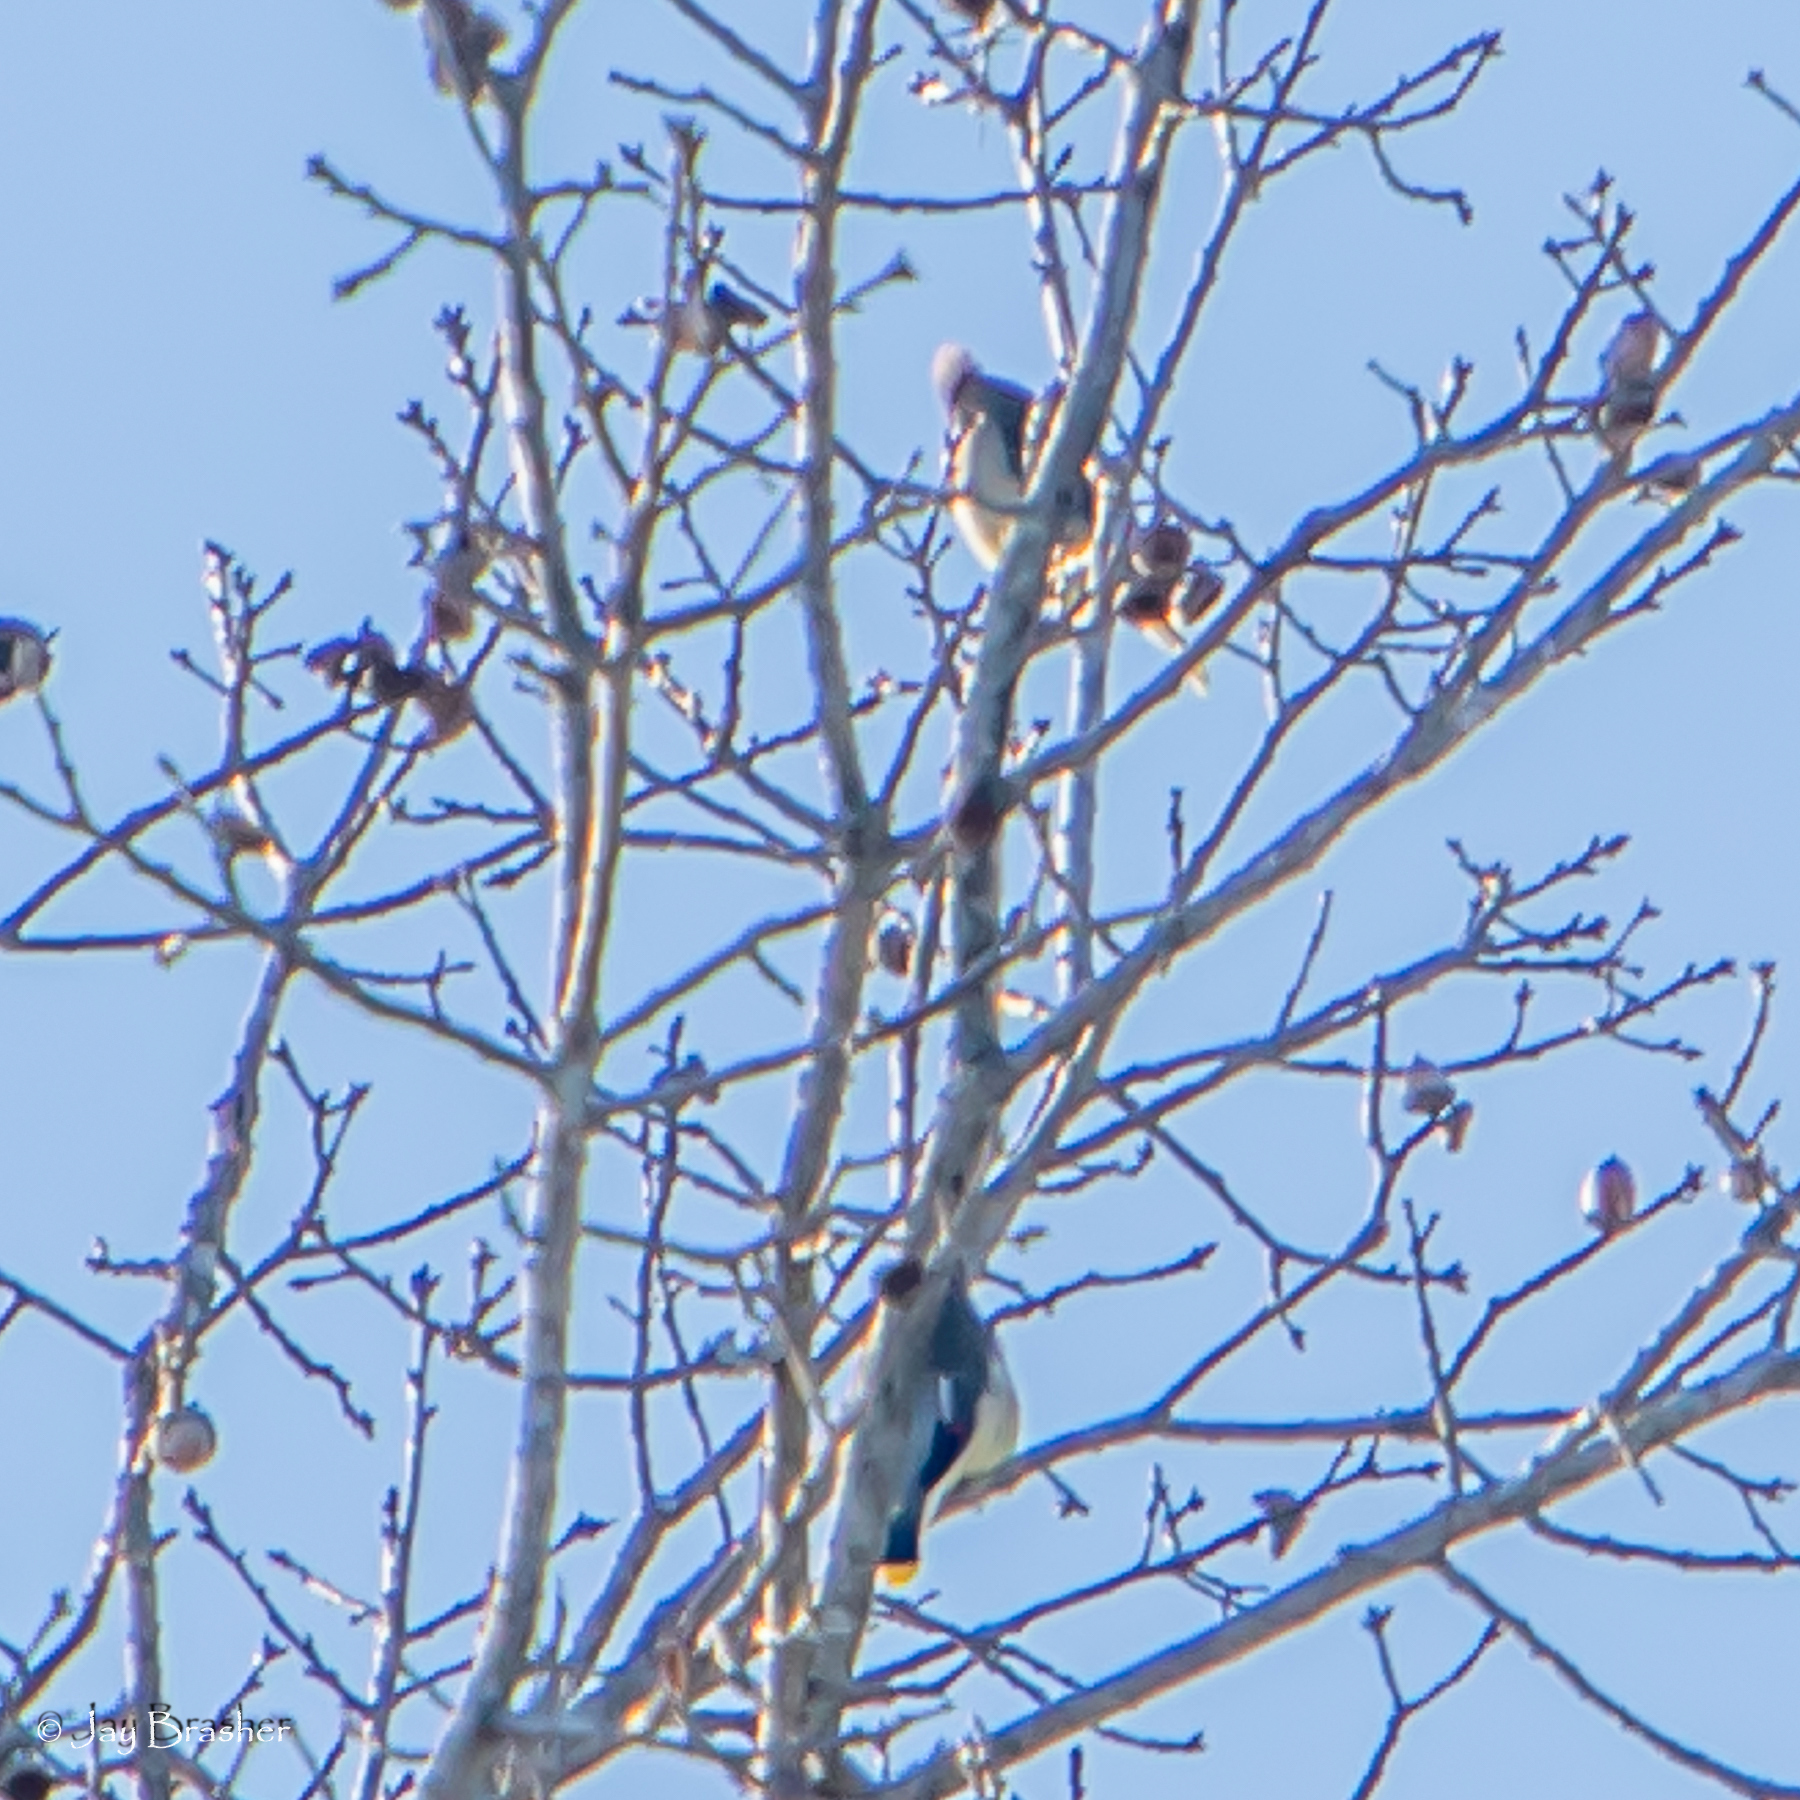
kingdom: Animalia
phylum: Chordata
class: Aves
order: Passeriformes
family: Bombycillidae
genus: Bombycilla
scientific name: Bombycilla cedrorum
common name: Cedar waxwing
